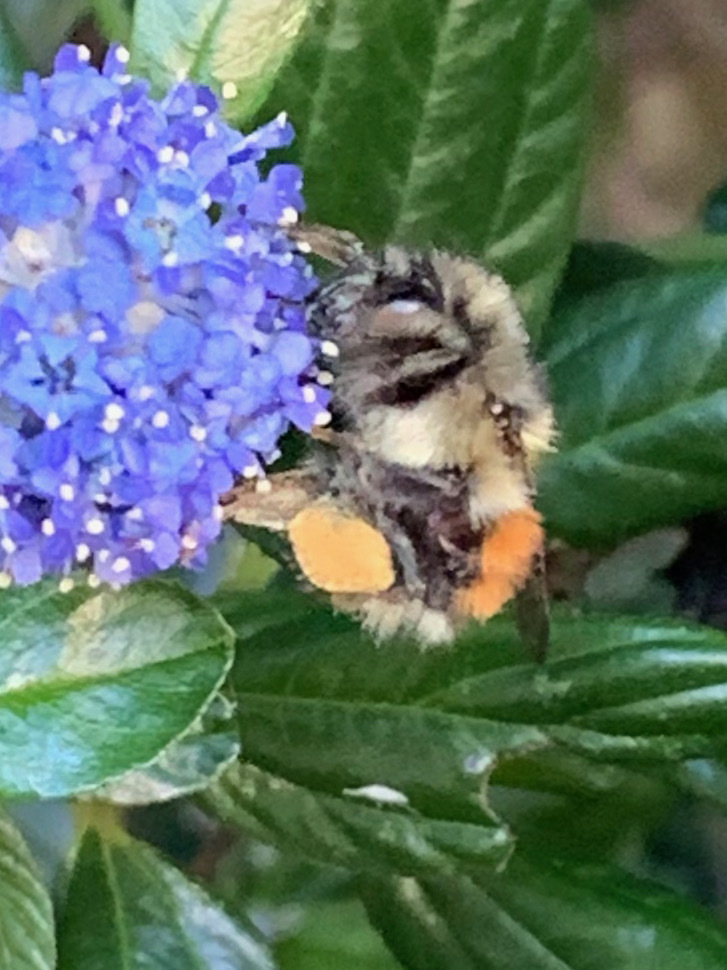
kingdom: Animalia
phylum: Arthropoda
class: Insecta
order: Hymenoptera
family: Apidae
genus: Bombus
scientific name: Bombus melanopygus
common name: Black tail bumble bee
